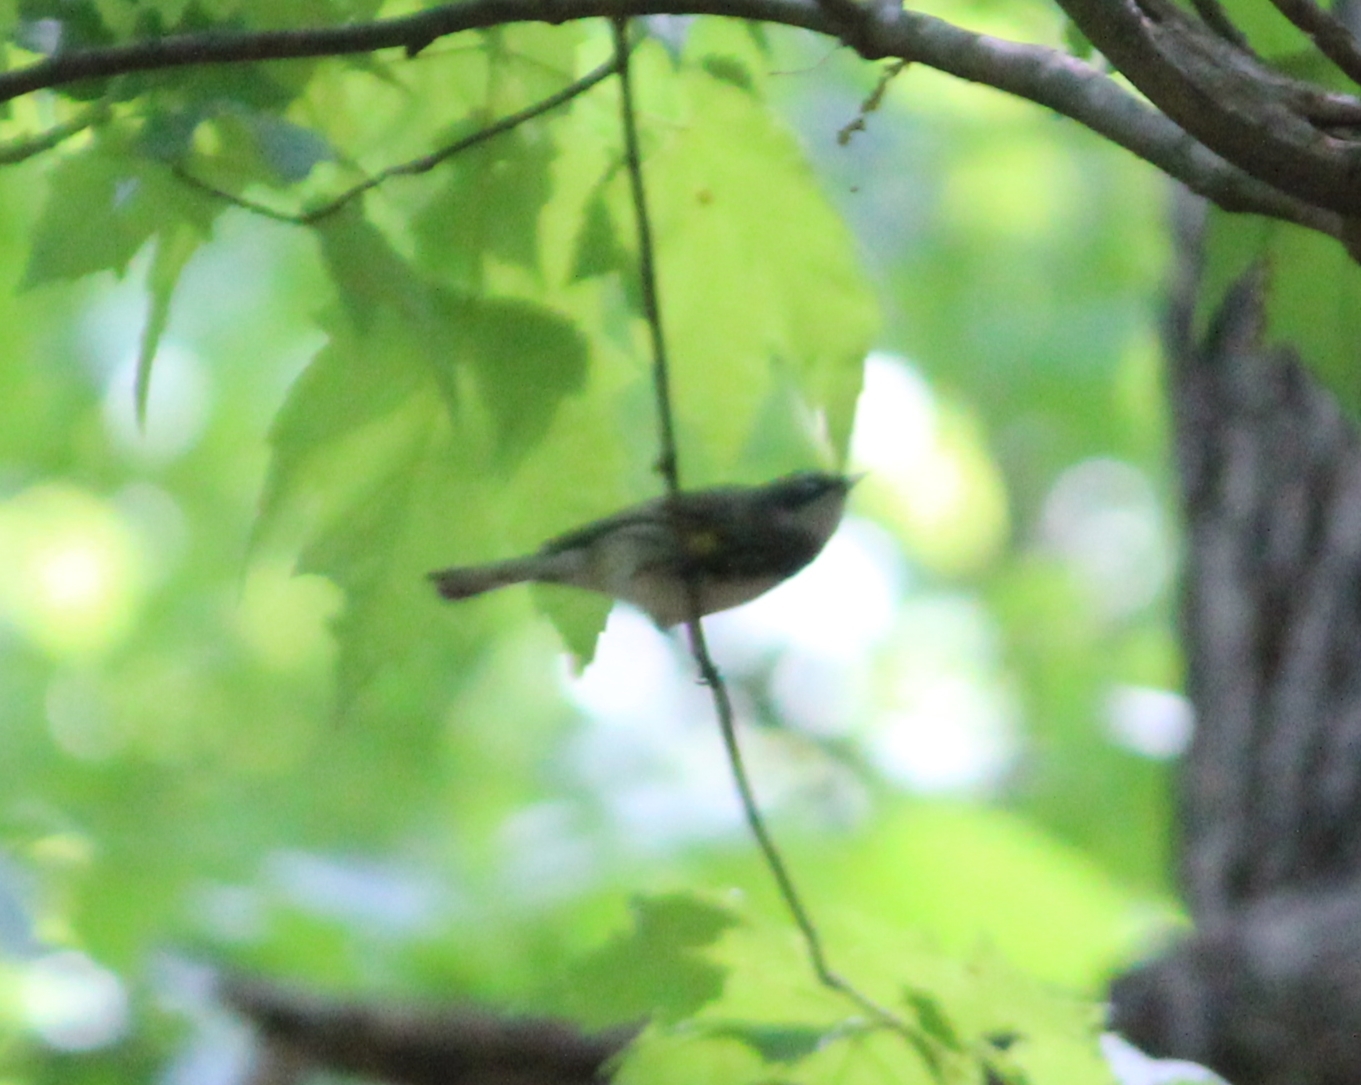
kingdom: Animalia
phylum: Chordata
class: Aves
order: Passeriformes
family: Parulidae
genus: Setophaga
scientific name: Setophaga coronata
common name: Myrtle warbler
